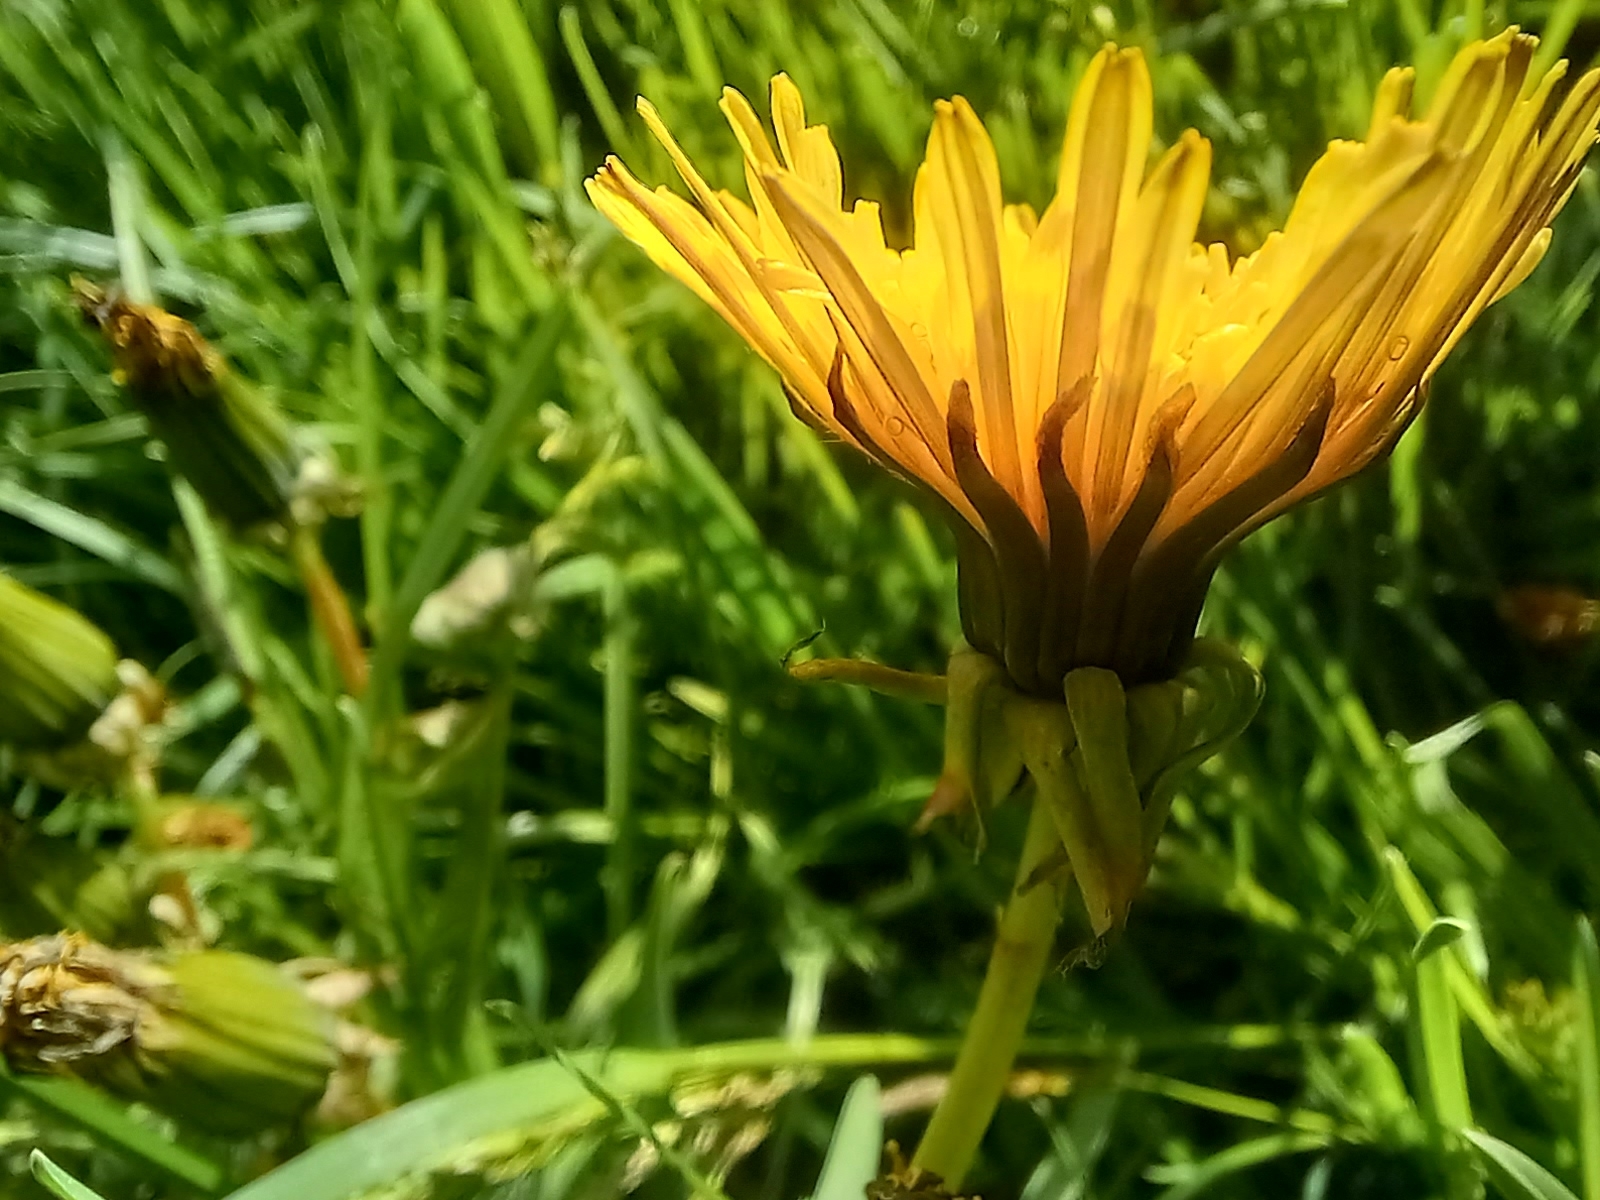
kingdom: Plantae
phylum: Tracheophyta
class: Magnoliopsida
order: Asterales
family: Asteraceae
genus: Taraxacum
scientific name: Taraxacum officinale
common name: Common dandelion
